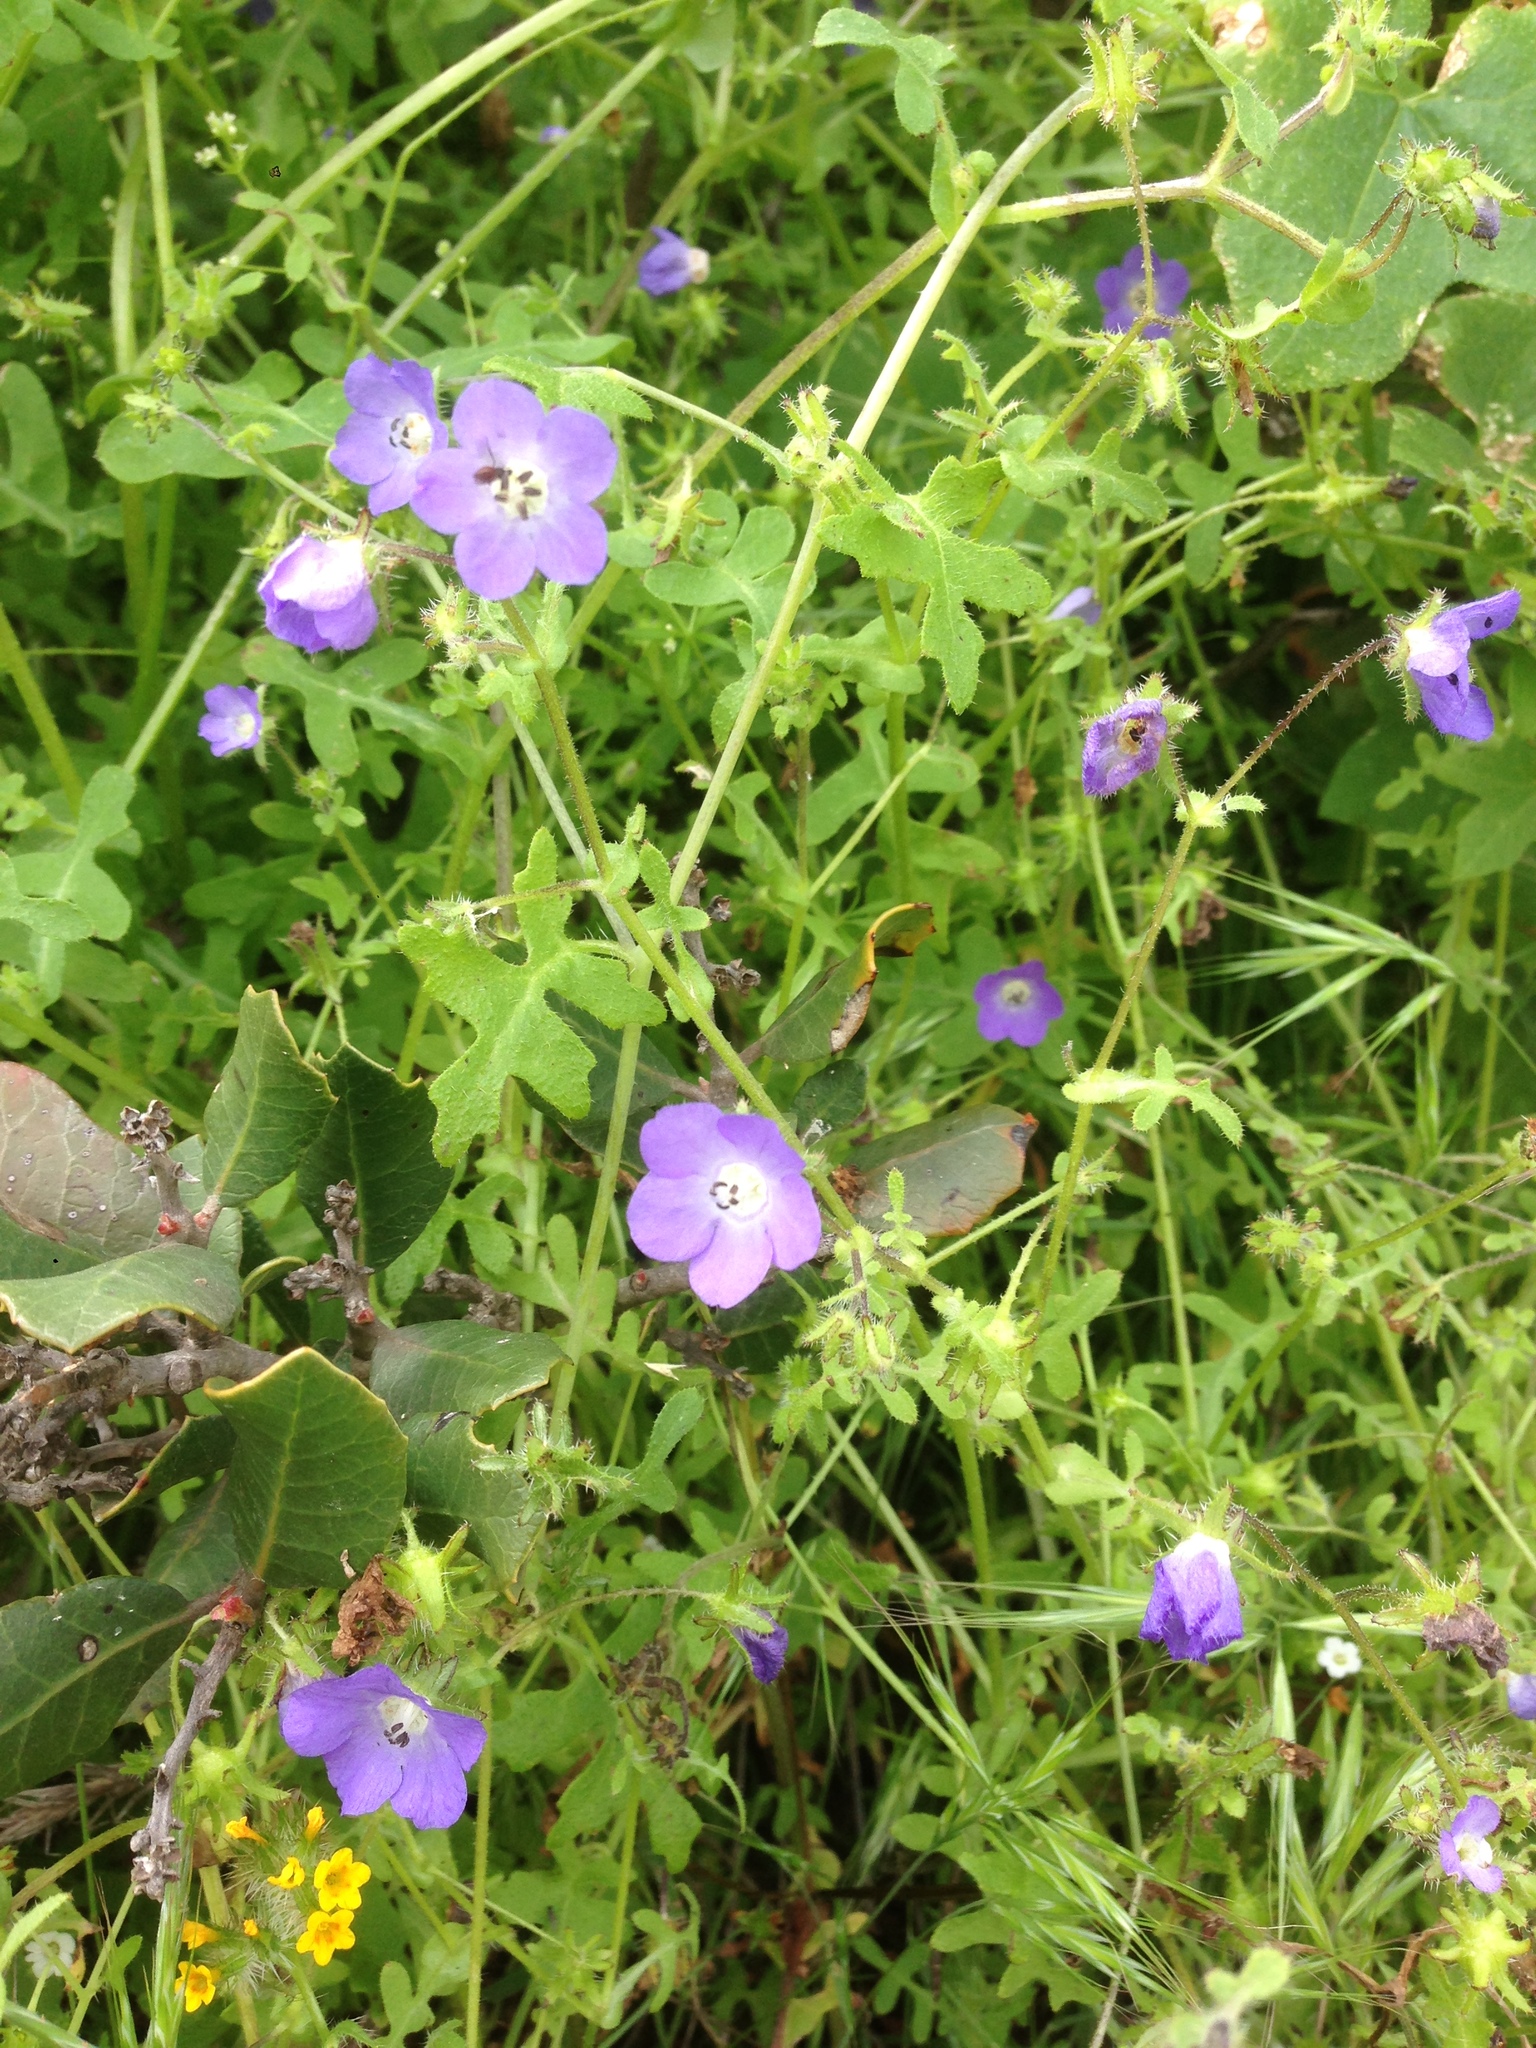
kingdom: Plantae
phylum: Tracheophyta
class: Magnoliopsida
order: Boraginales
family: Hydrophyllaceae
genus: Pholistoma
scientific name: Pholistoma auritum
